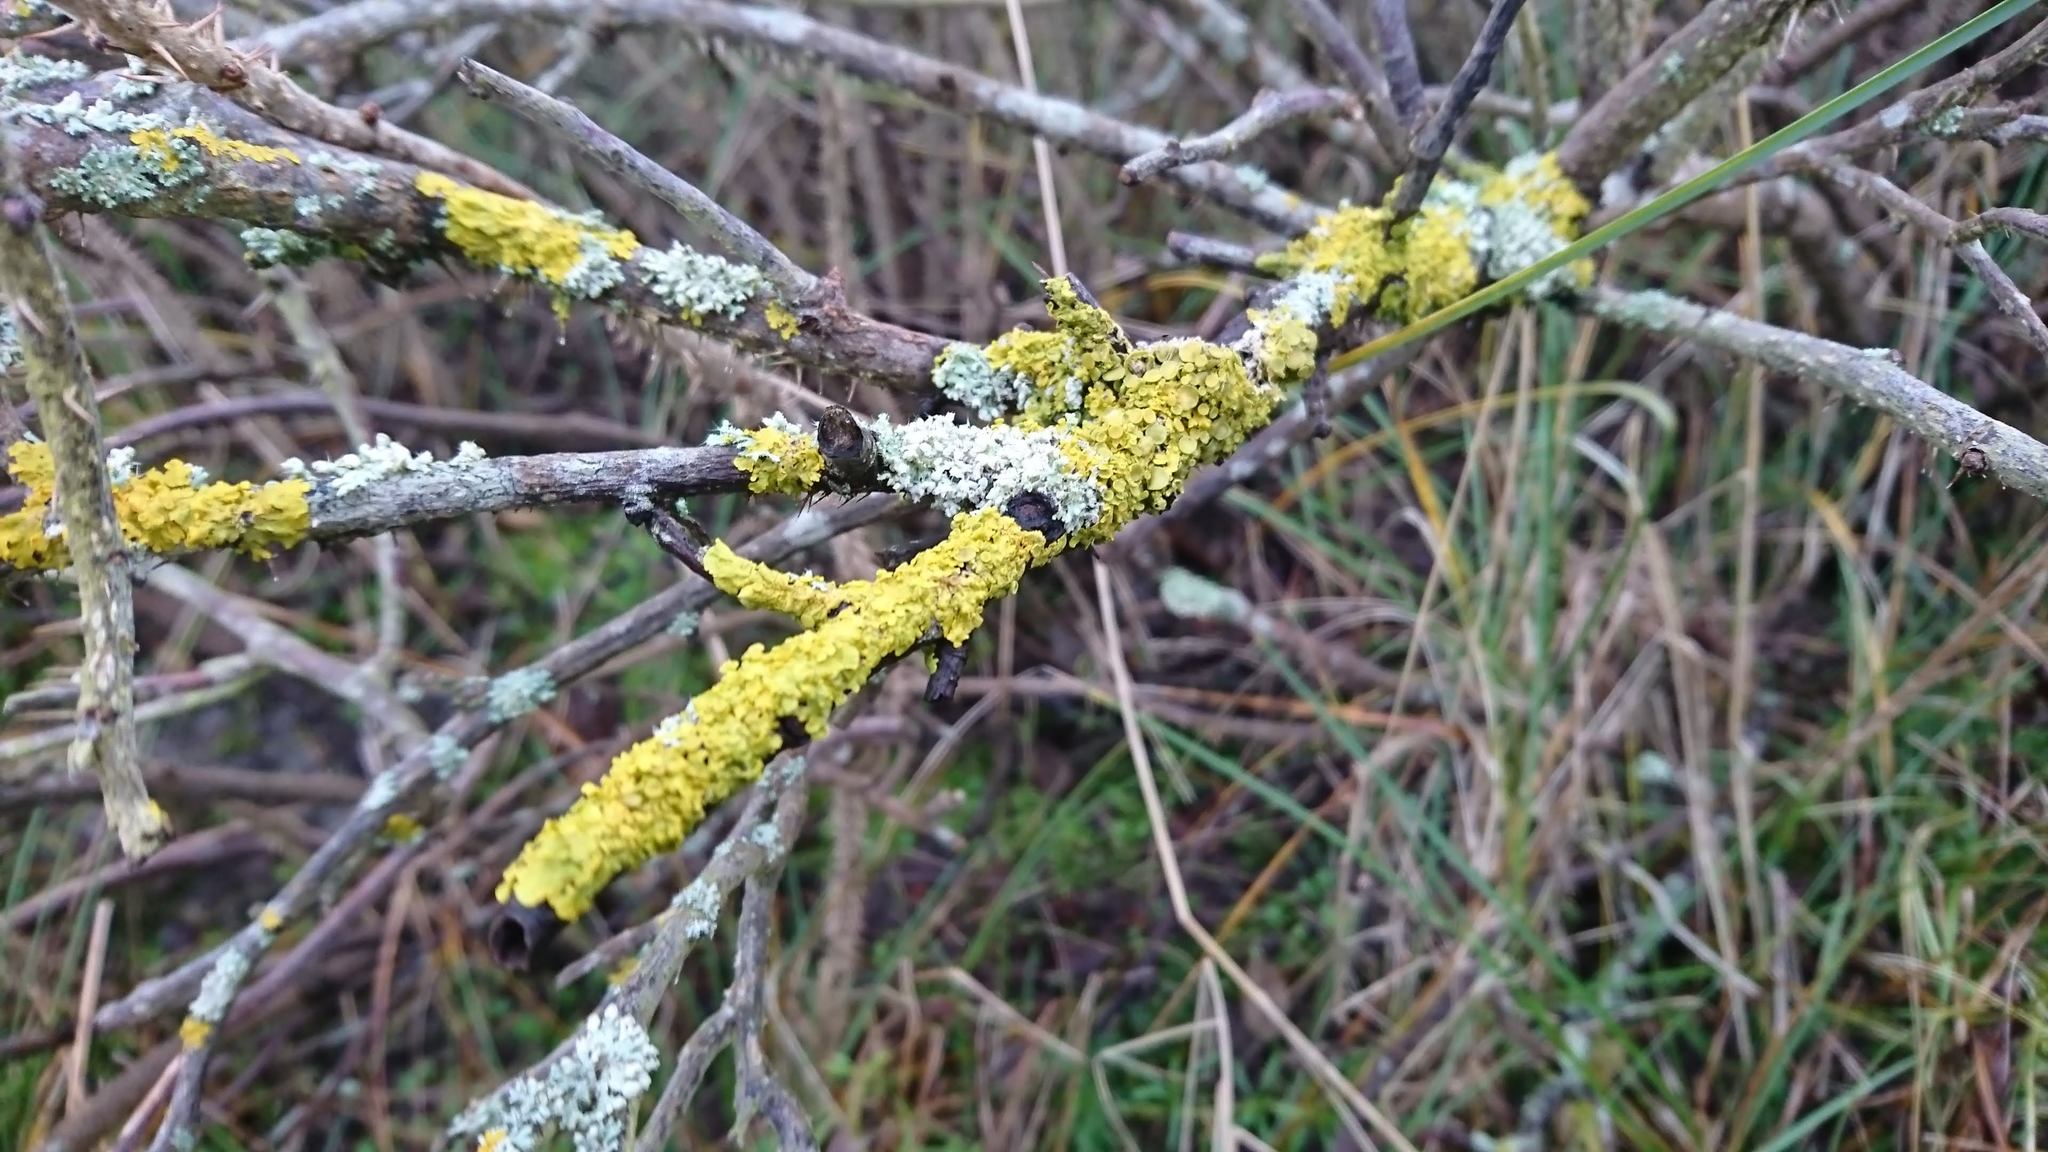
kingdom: Fungi
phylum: Ascomycota
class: Lecanoromycetes
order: Teloschistales
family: Teloschistaceae
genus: Xanthoria
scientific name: Xanthoria parietina
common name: Common orange lichen
